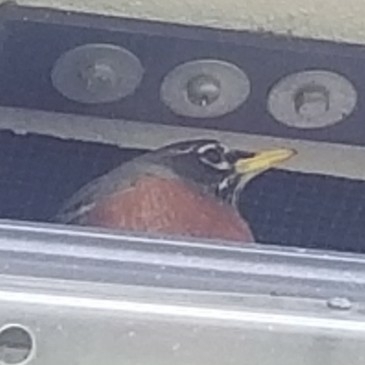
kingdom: Animalia
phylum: Chordata
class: Aves
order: Passeriformes
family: Turdidae
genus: Turdus
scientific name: Turdus migratorius
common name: American robin
